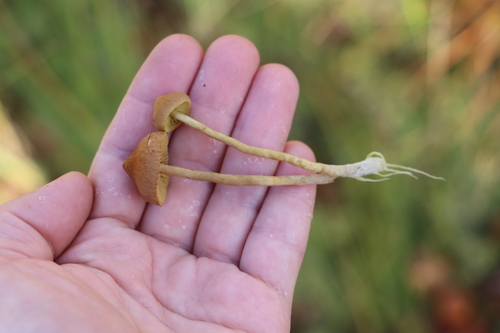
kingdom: Fungi
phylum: Basidiomycota
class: Agaricomycetes
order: Agaricales
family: Cortinariaceae
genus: Cortinarius
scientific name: Cortinarius tubarius
